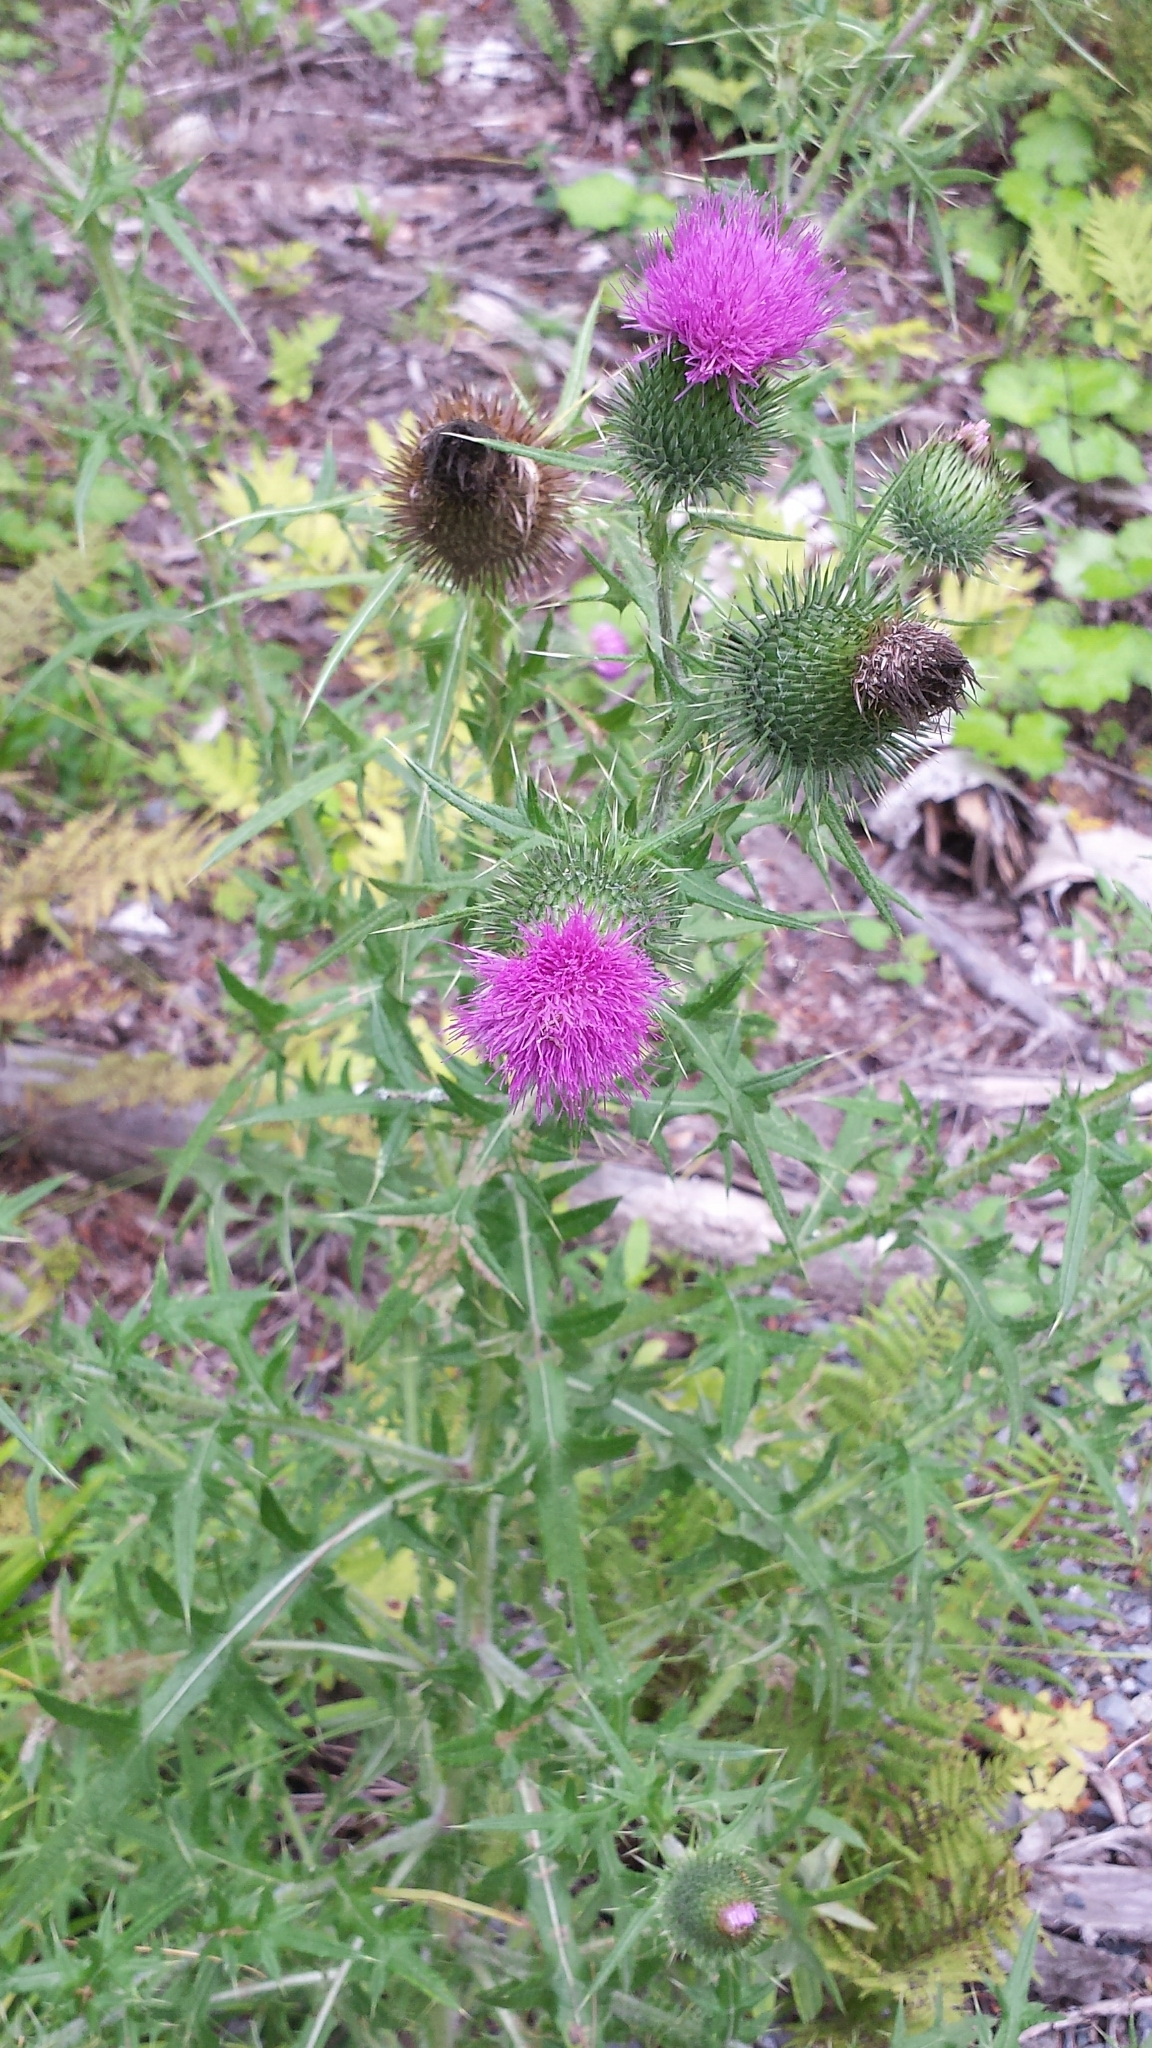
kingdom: Plantae
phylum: Tracheophyta
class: Magnoliopsida
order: Asterales
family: Asteraceae
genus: Cirsium
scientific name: Cirsium vulgare
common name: Bull thistle
